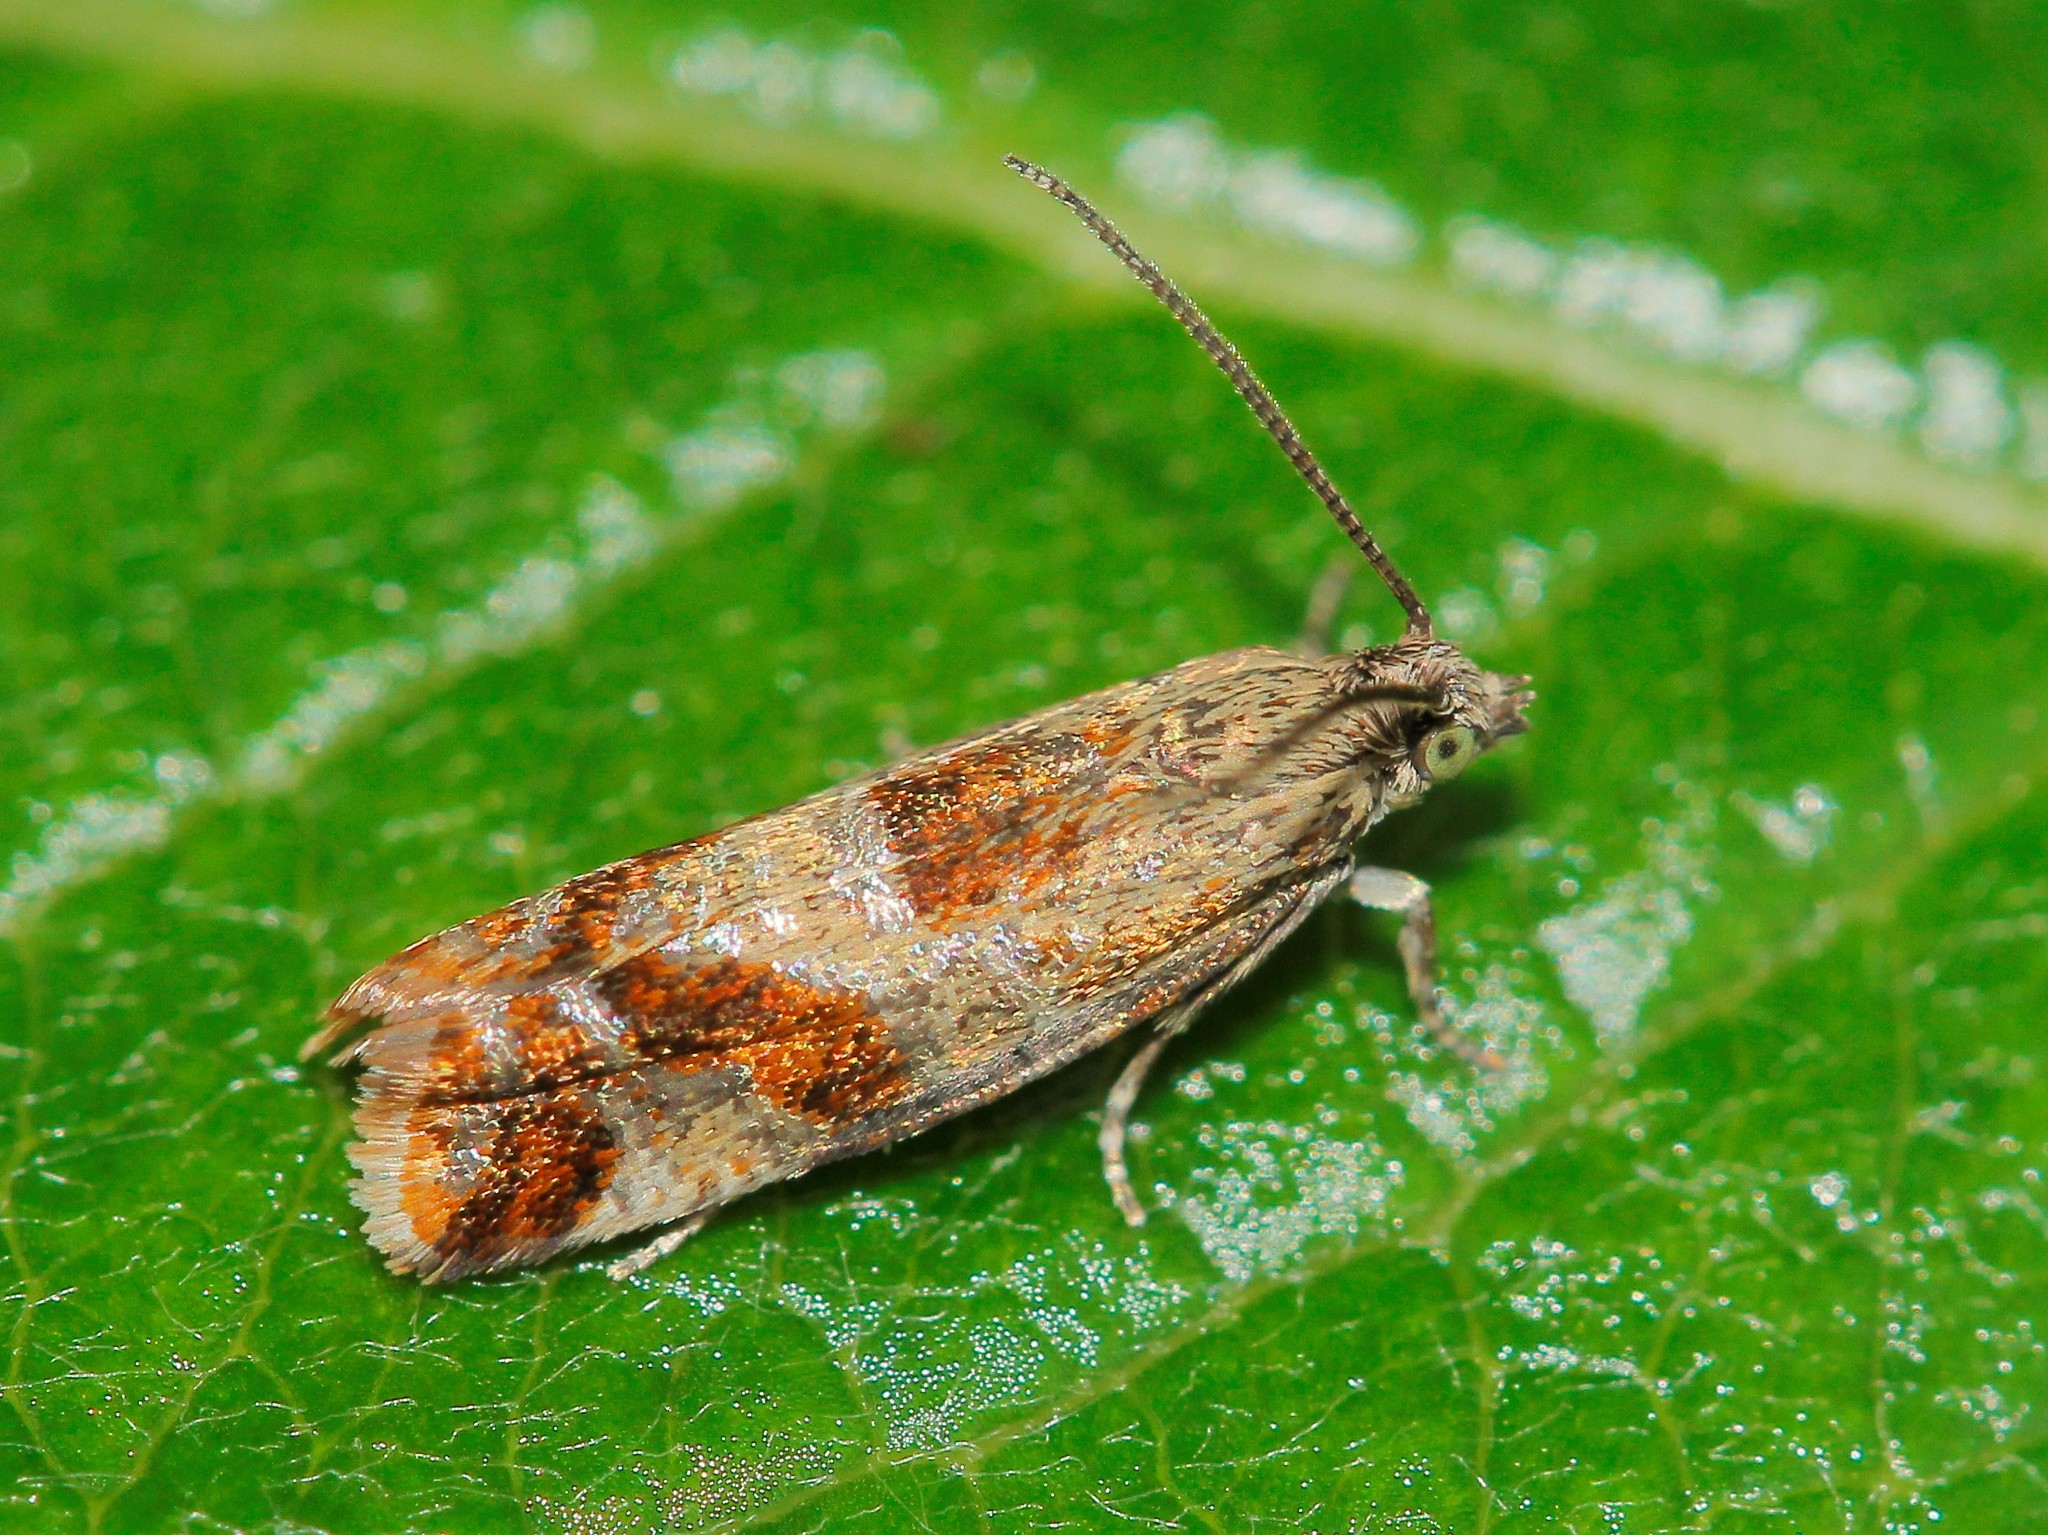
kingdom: Animalia
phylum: Arthropoda
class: Insecta
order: Lepidoptera
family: Tortricidae
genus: Epinotia
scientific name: Epinotia cruciana
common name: Willow tortrix
